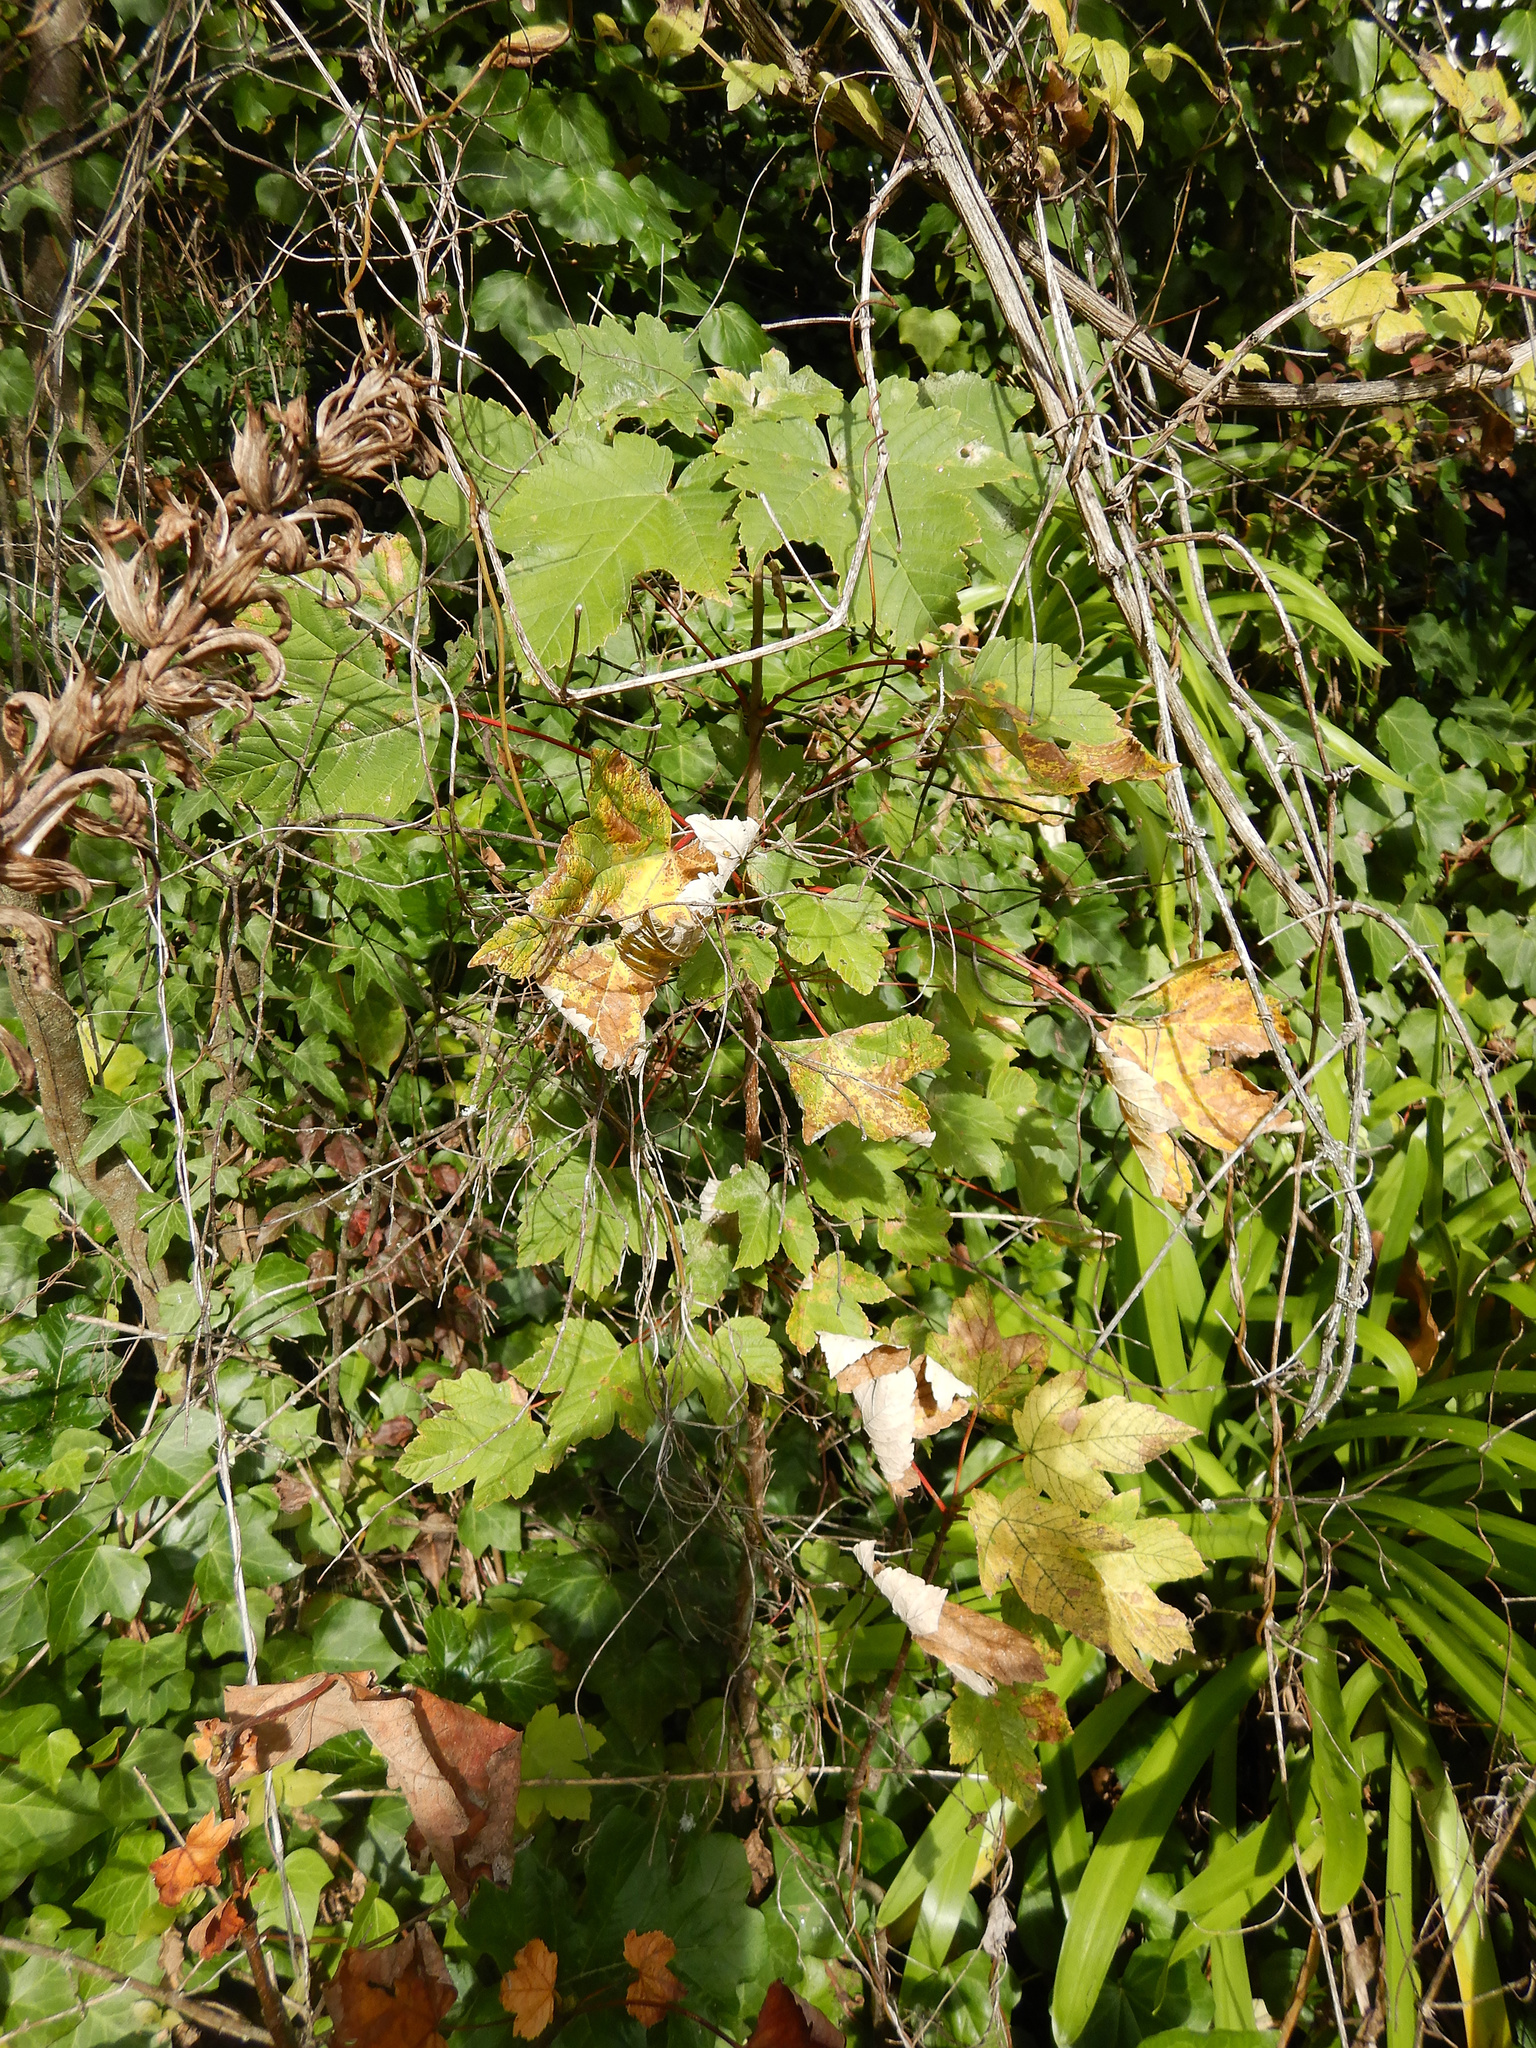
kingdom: Plantae
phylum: Tracheophyta
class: Magnoliopsida
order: Sapindales
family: Sapindaceae
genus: Acer
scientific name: Acer pseudoplatanus
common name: Sycamore
